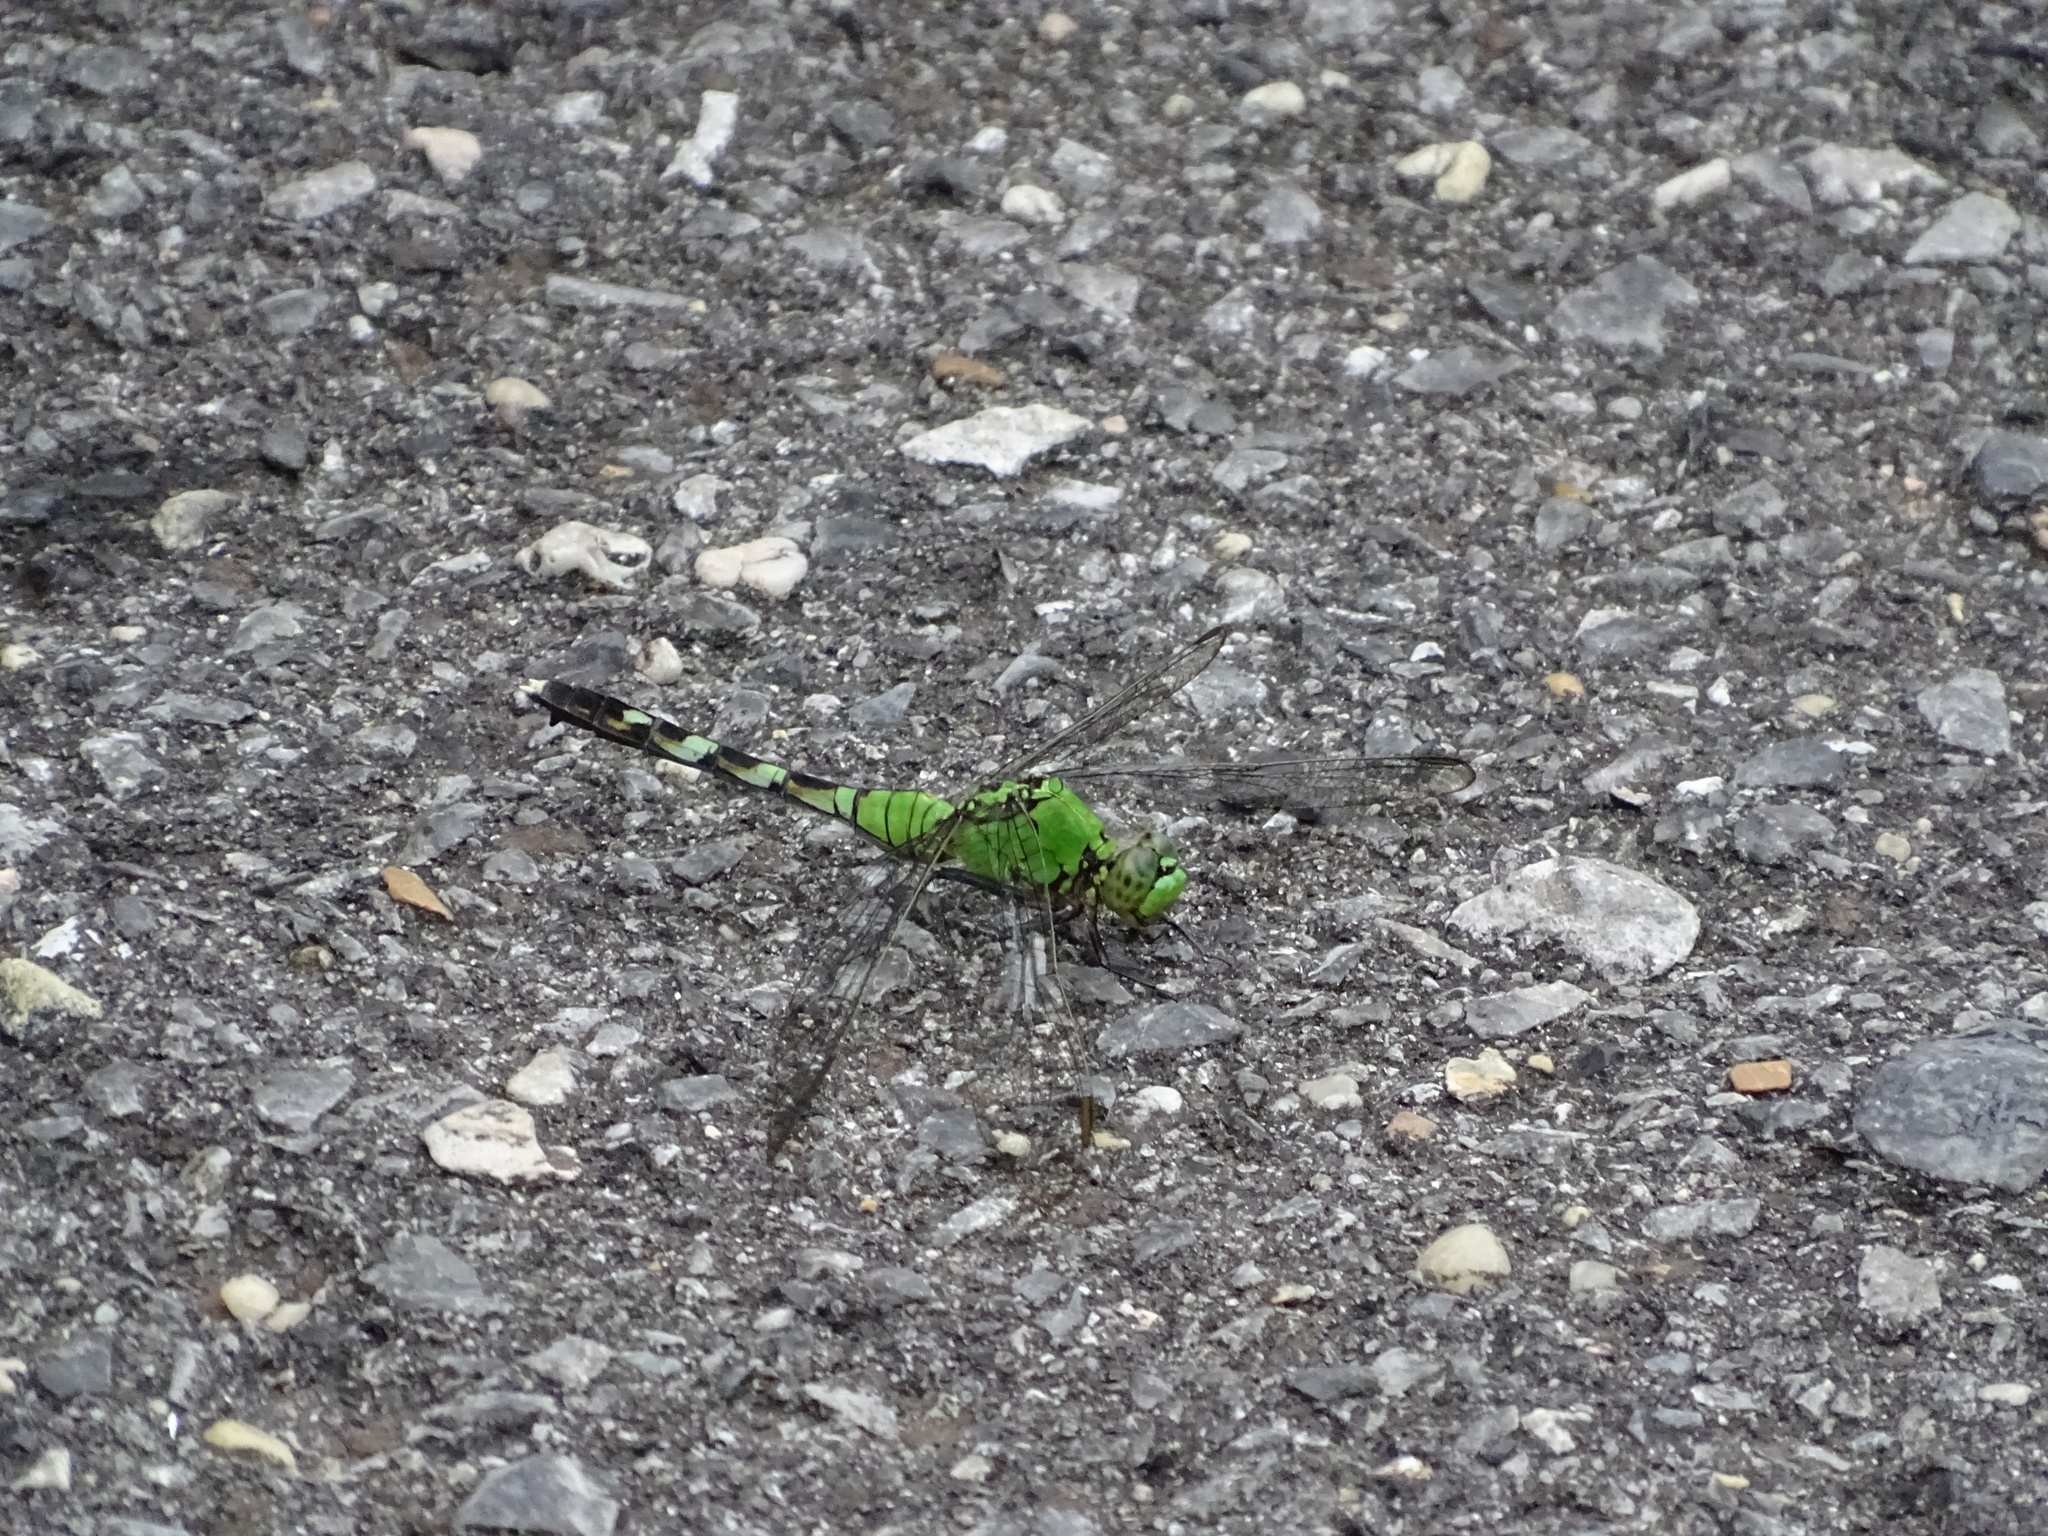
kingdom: Animalia
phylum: Arthropoda
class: Insecta
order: Odonata
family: Libellulidae
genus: Erythemis
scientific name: Erythemis simplicicollis
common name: Eastern pondhawk
